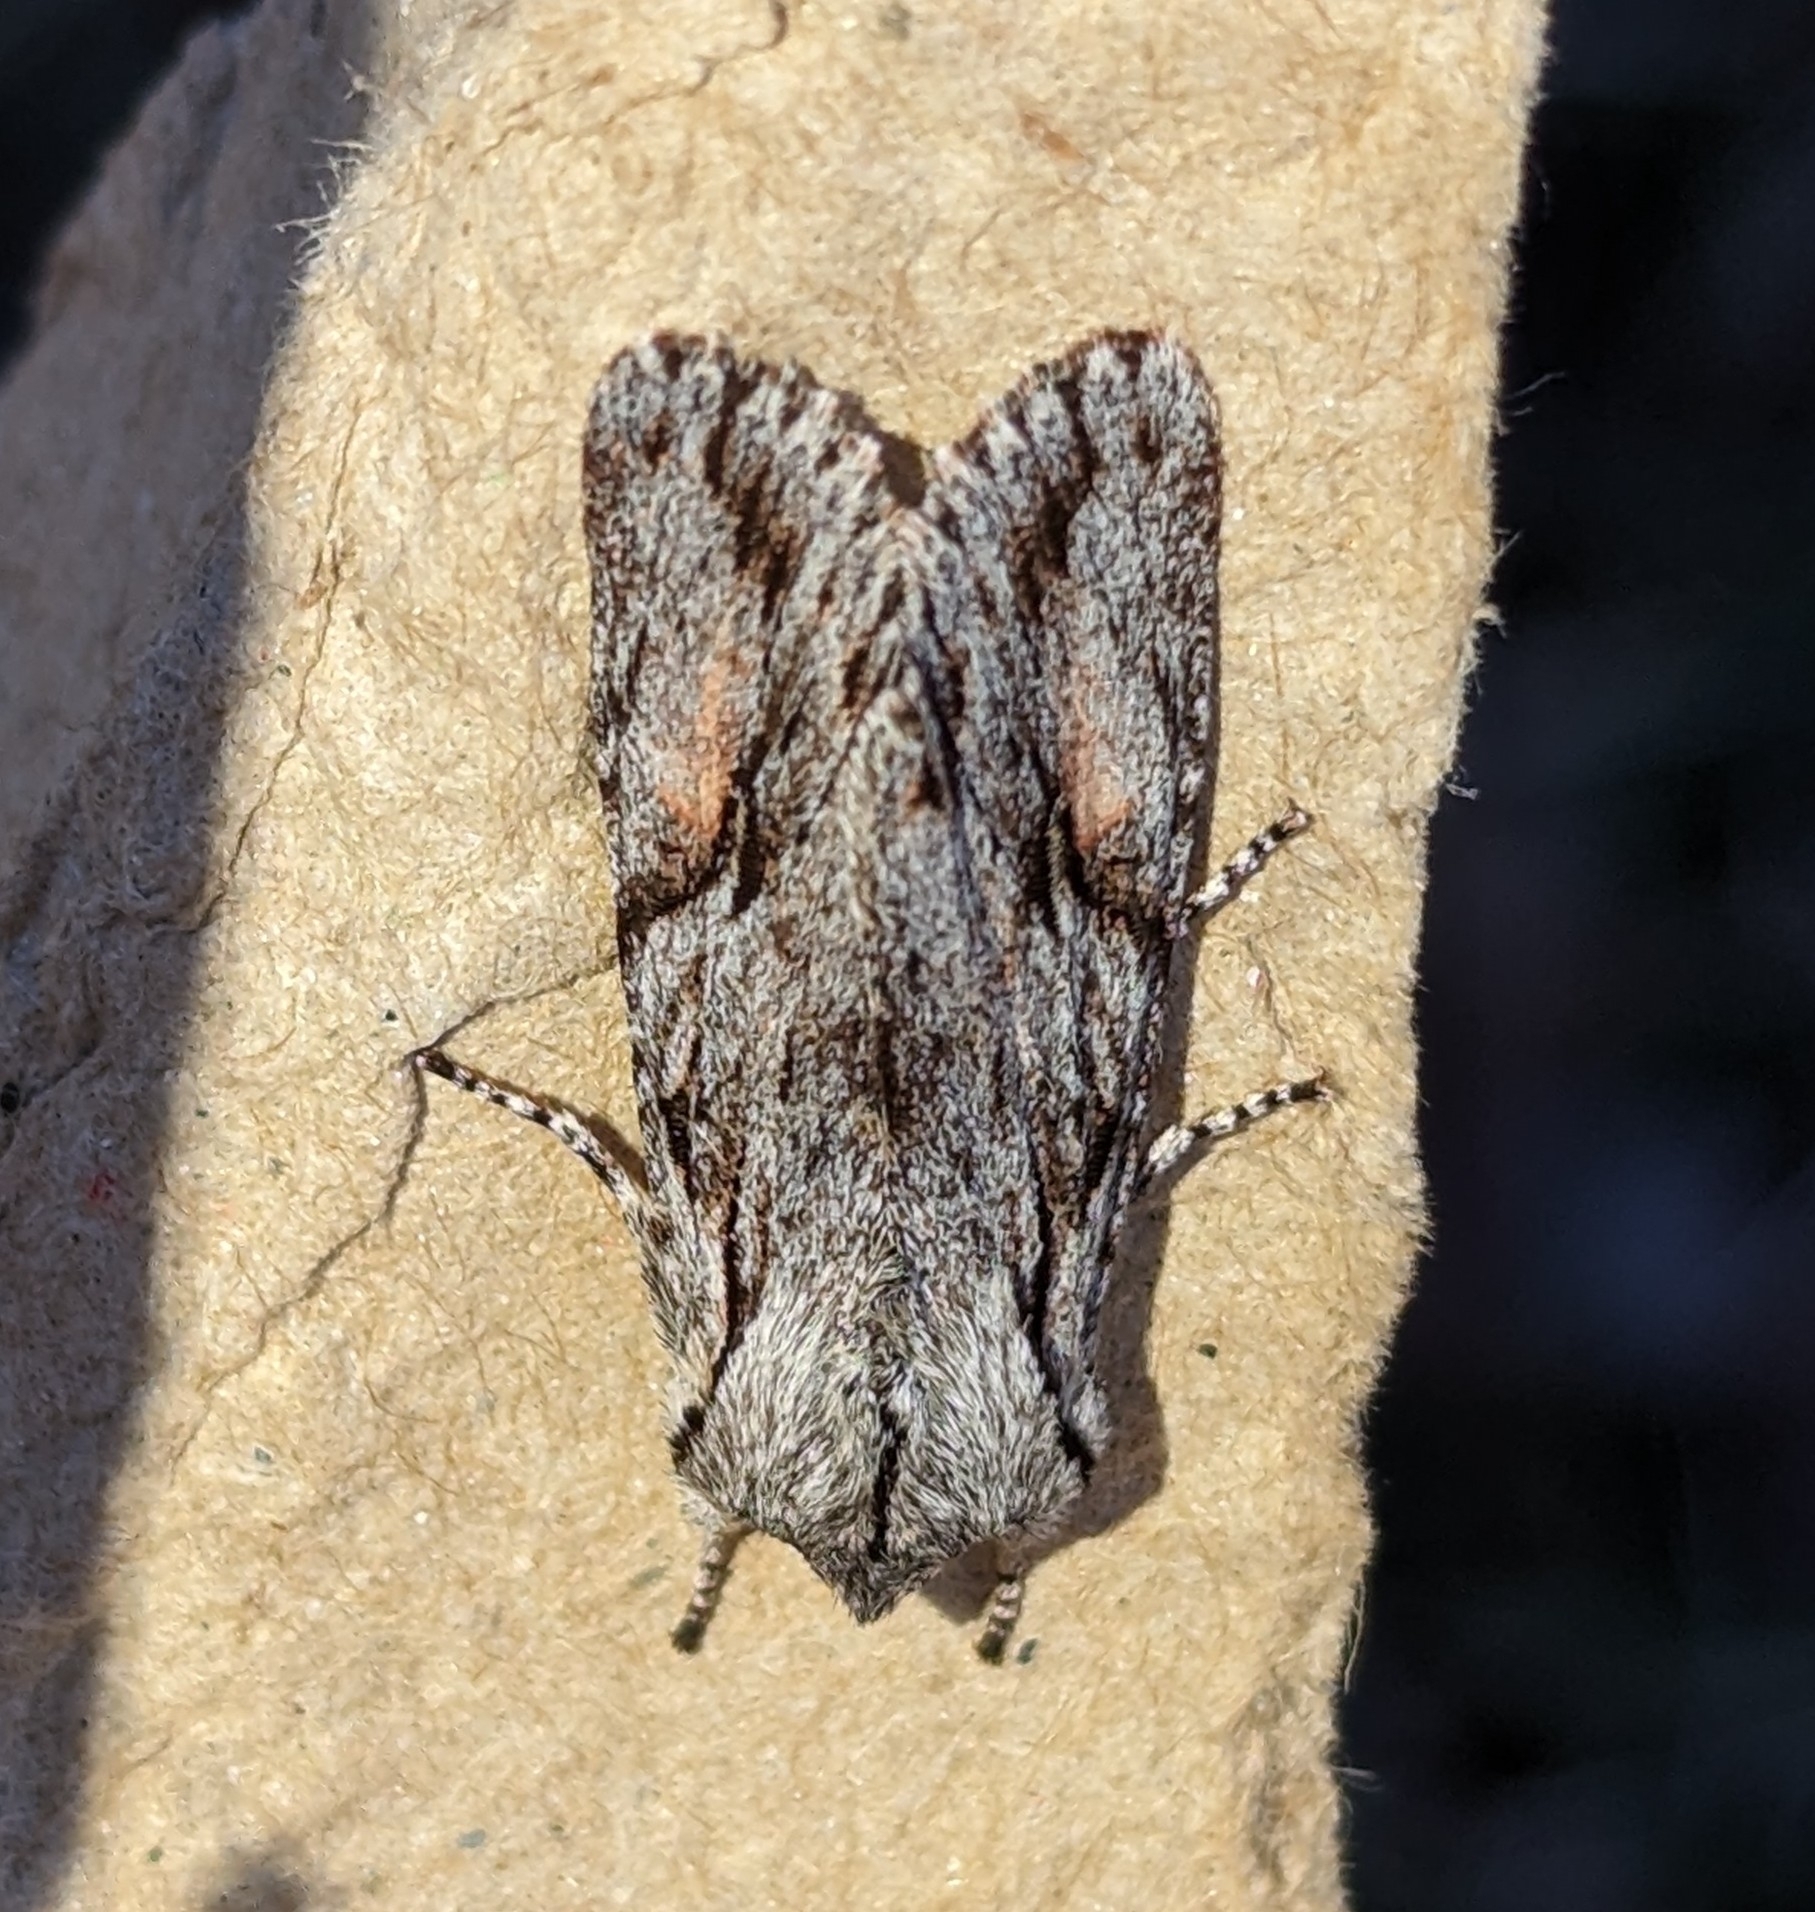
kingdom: Animalia
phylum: Arthropoda
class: Insecta
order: Lepidoptera
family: Noctuidae
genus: Egira
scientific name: Egira crucialis
